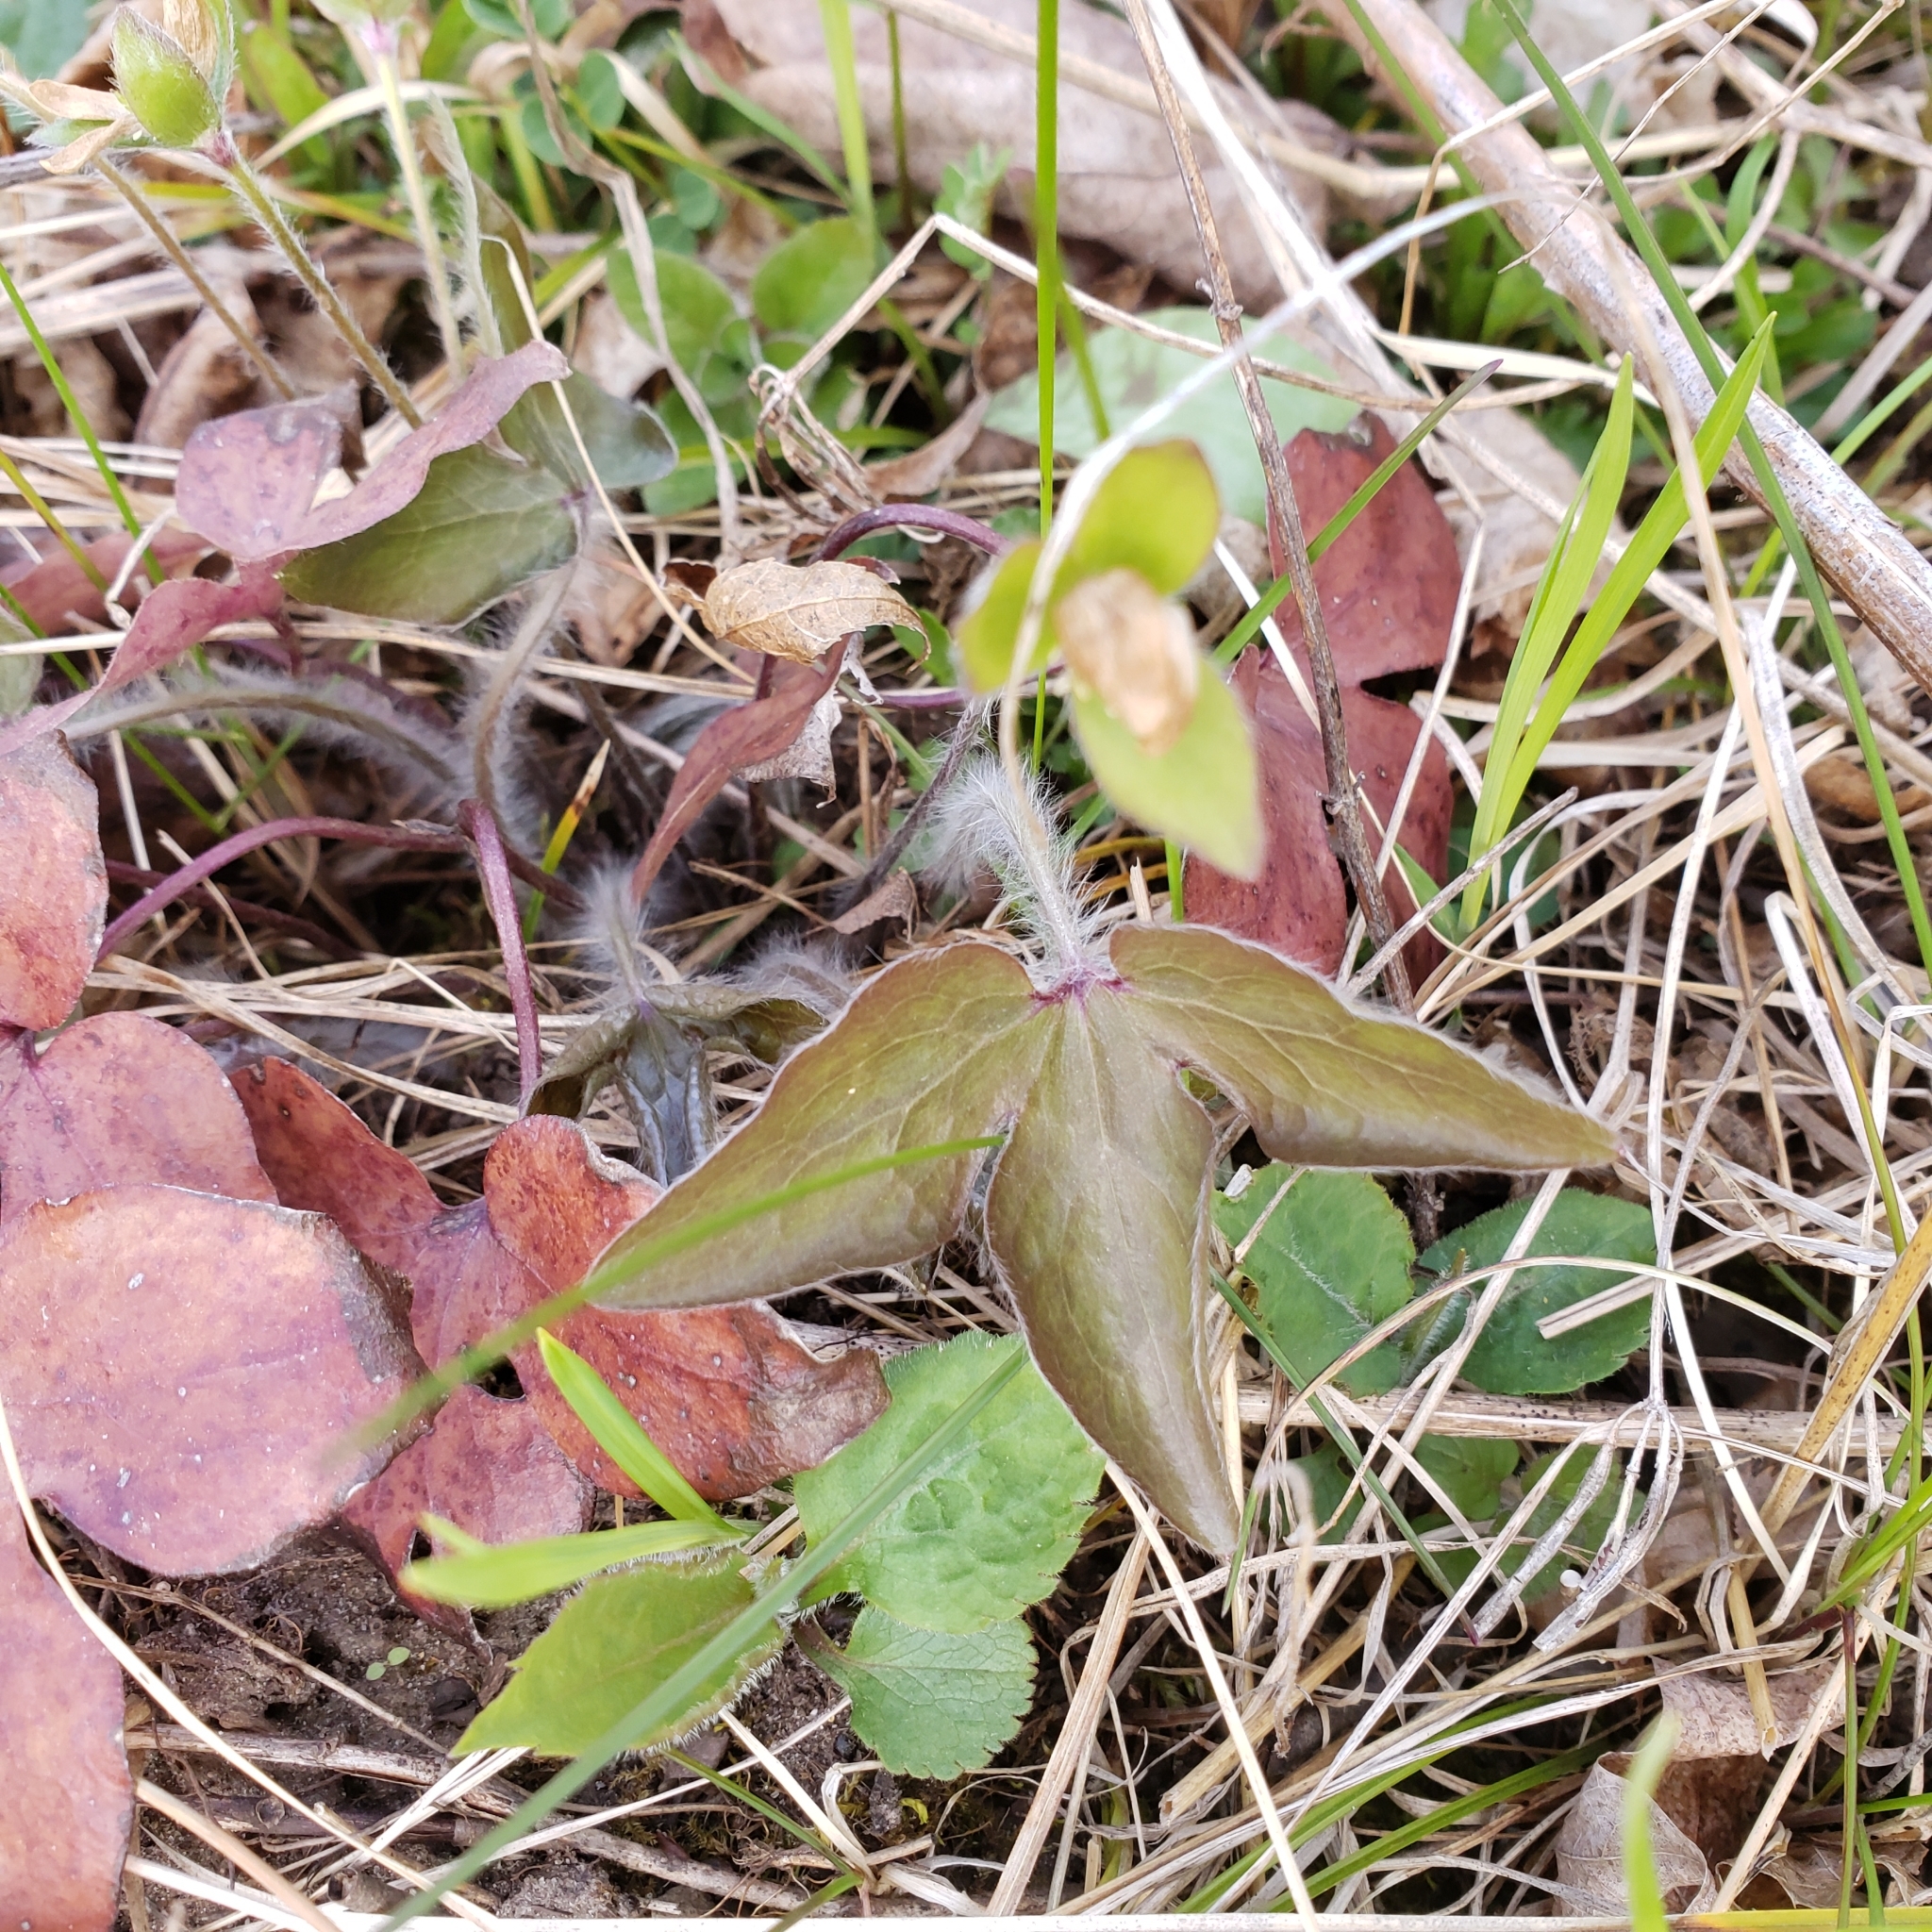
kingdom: Plantae
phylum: Tracheophyta
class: Magnoliopsida
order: Ranunculales
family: Ranunculaceae
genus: Hepatica
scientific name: Hepatica acutiloba
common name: Sharp-lobed hepatica
